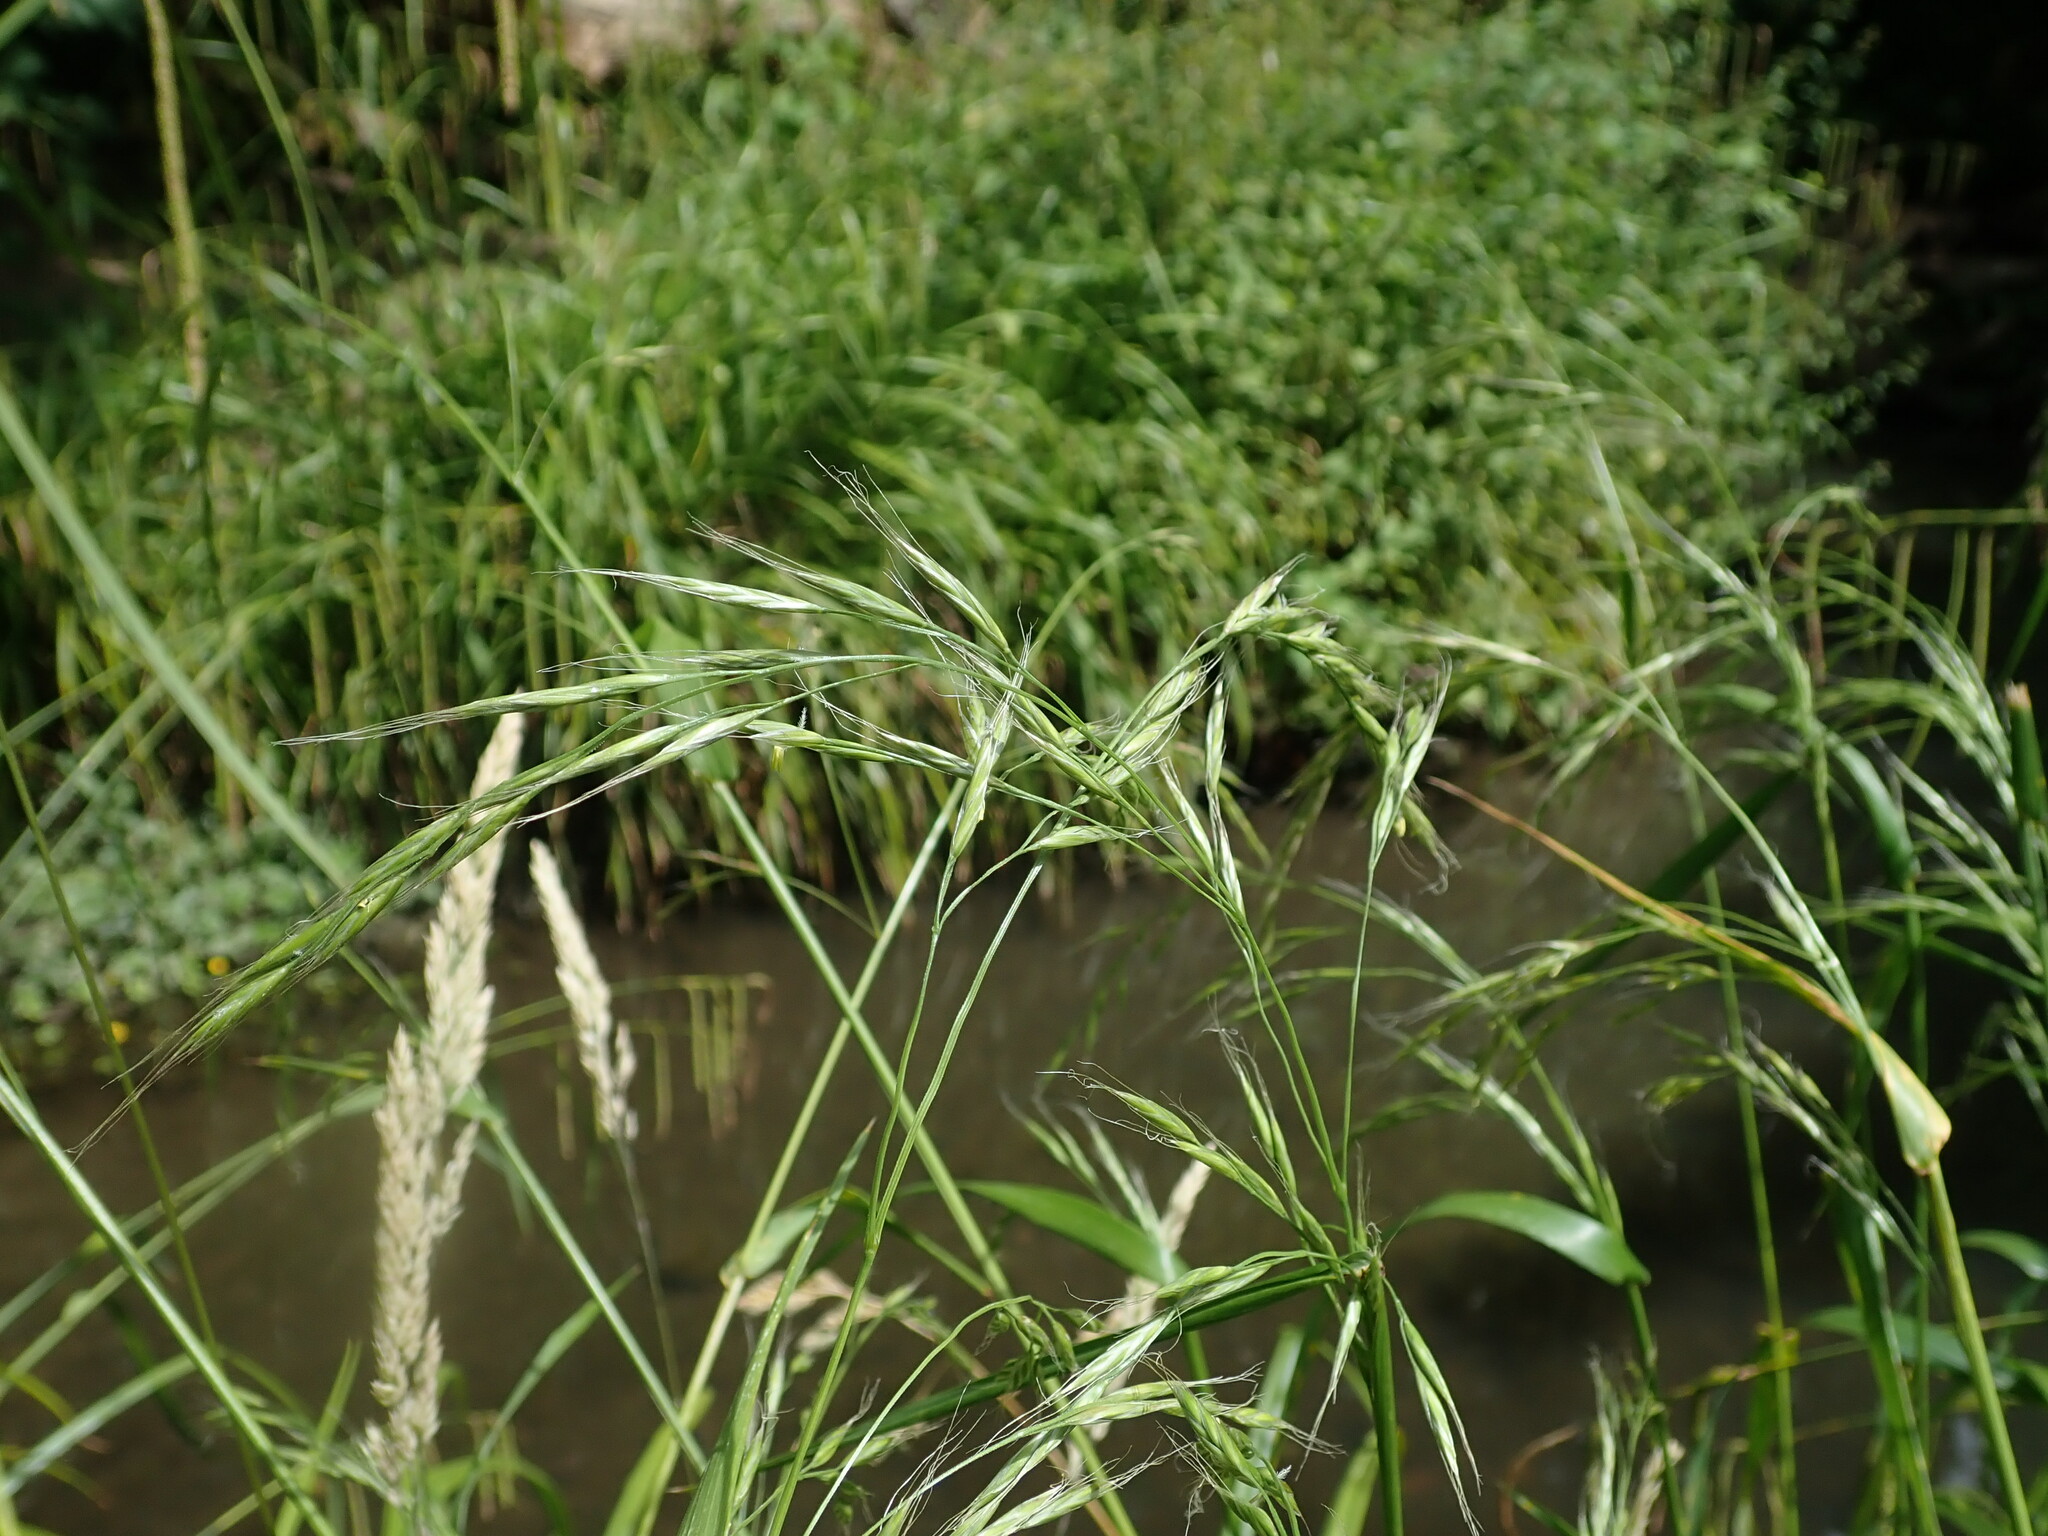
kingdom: Plantae
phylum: Tracheophyta
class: Liliopsida
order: Poales
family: Poaceae
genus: Lolium
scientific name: Lolium giganteum
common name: Giant fescue
